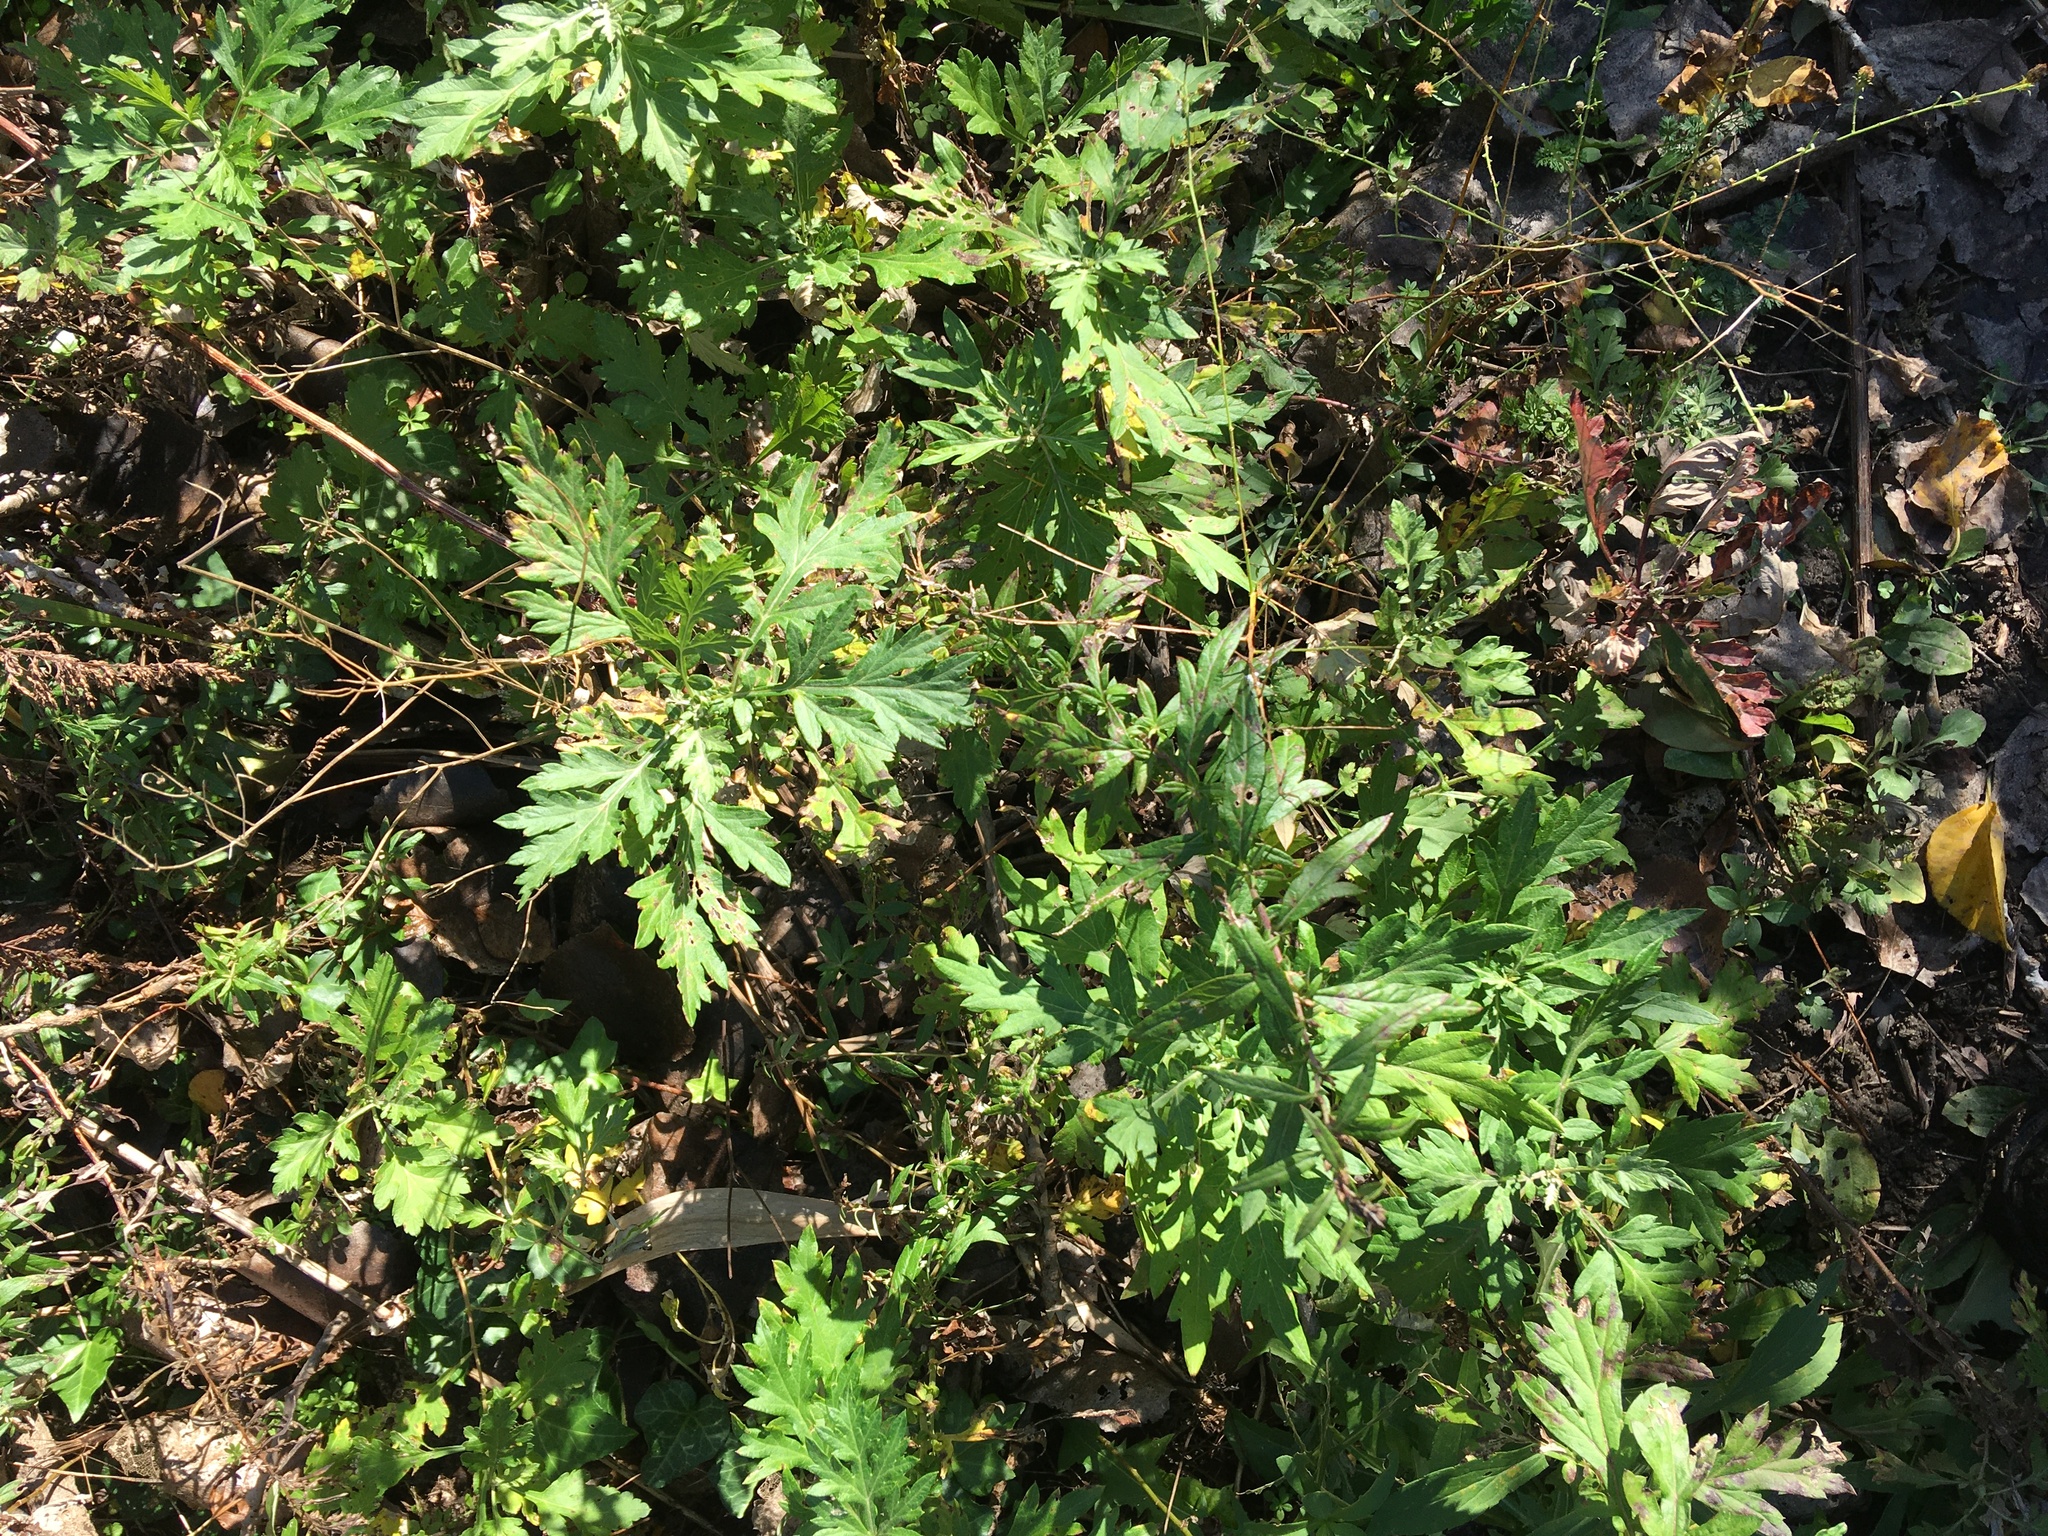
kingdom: Plantae
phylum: Tracheophyta
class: Magnoliopsida
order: Asterales
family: Asteraceae
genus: Artemisia
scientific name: Artemisia vulgaris
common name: Mugwort
